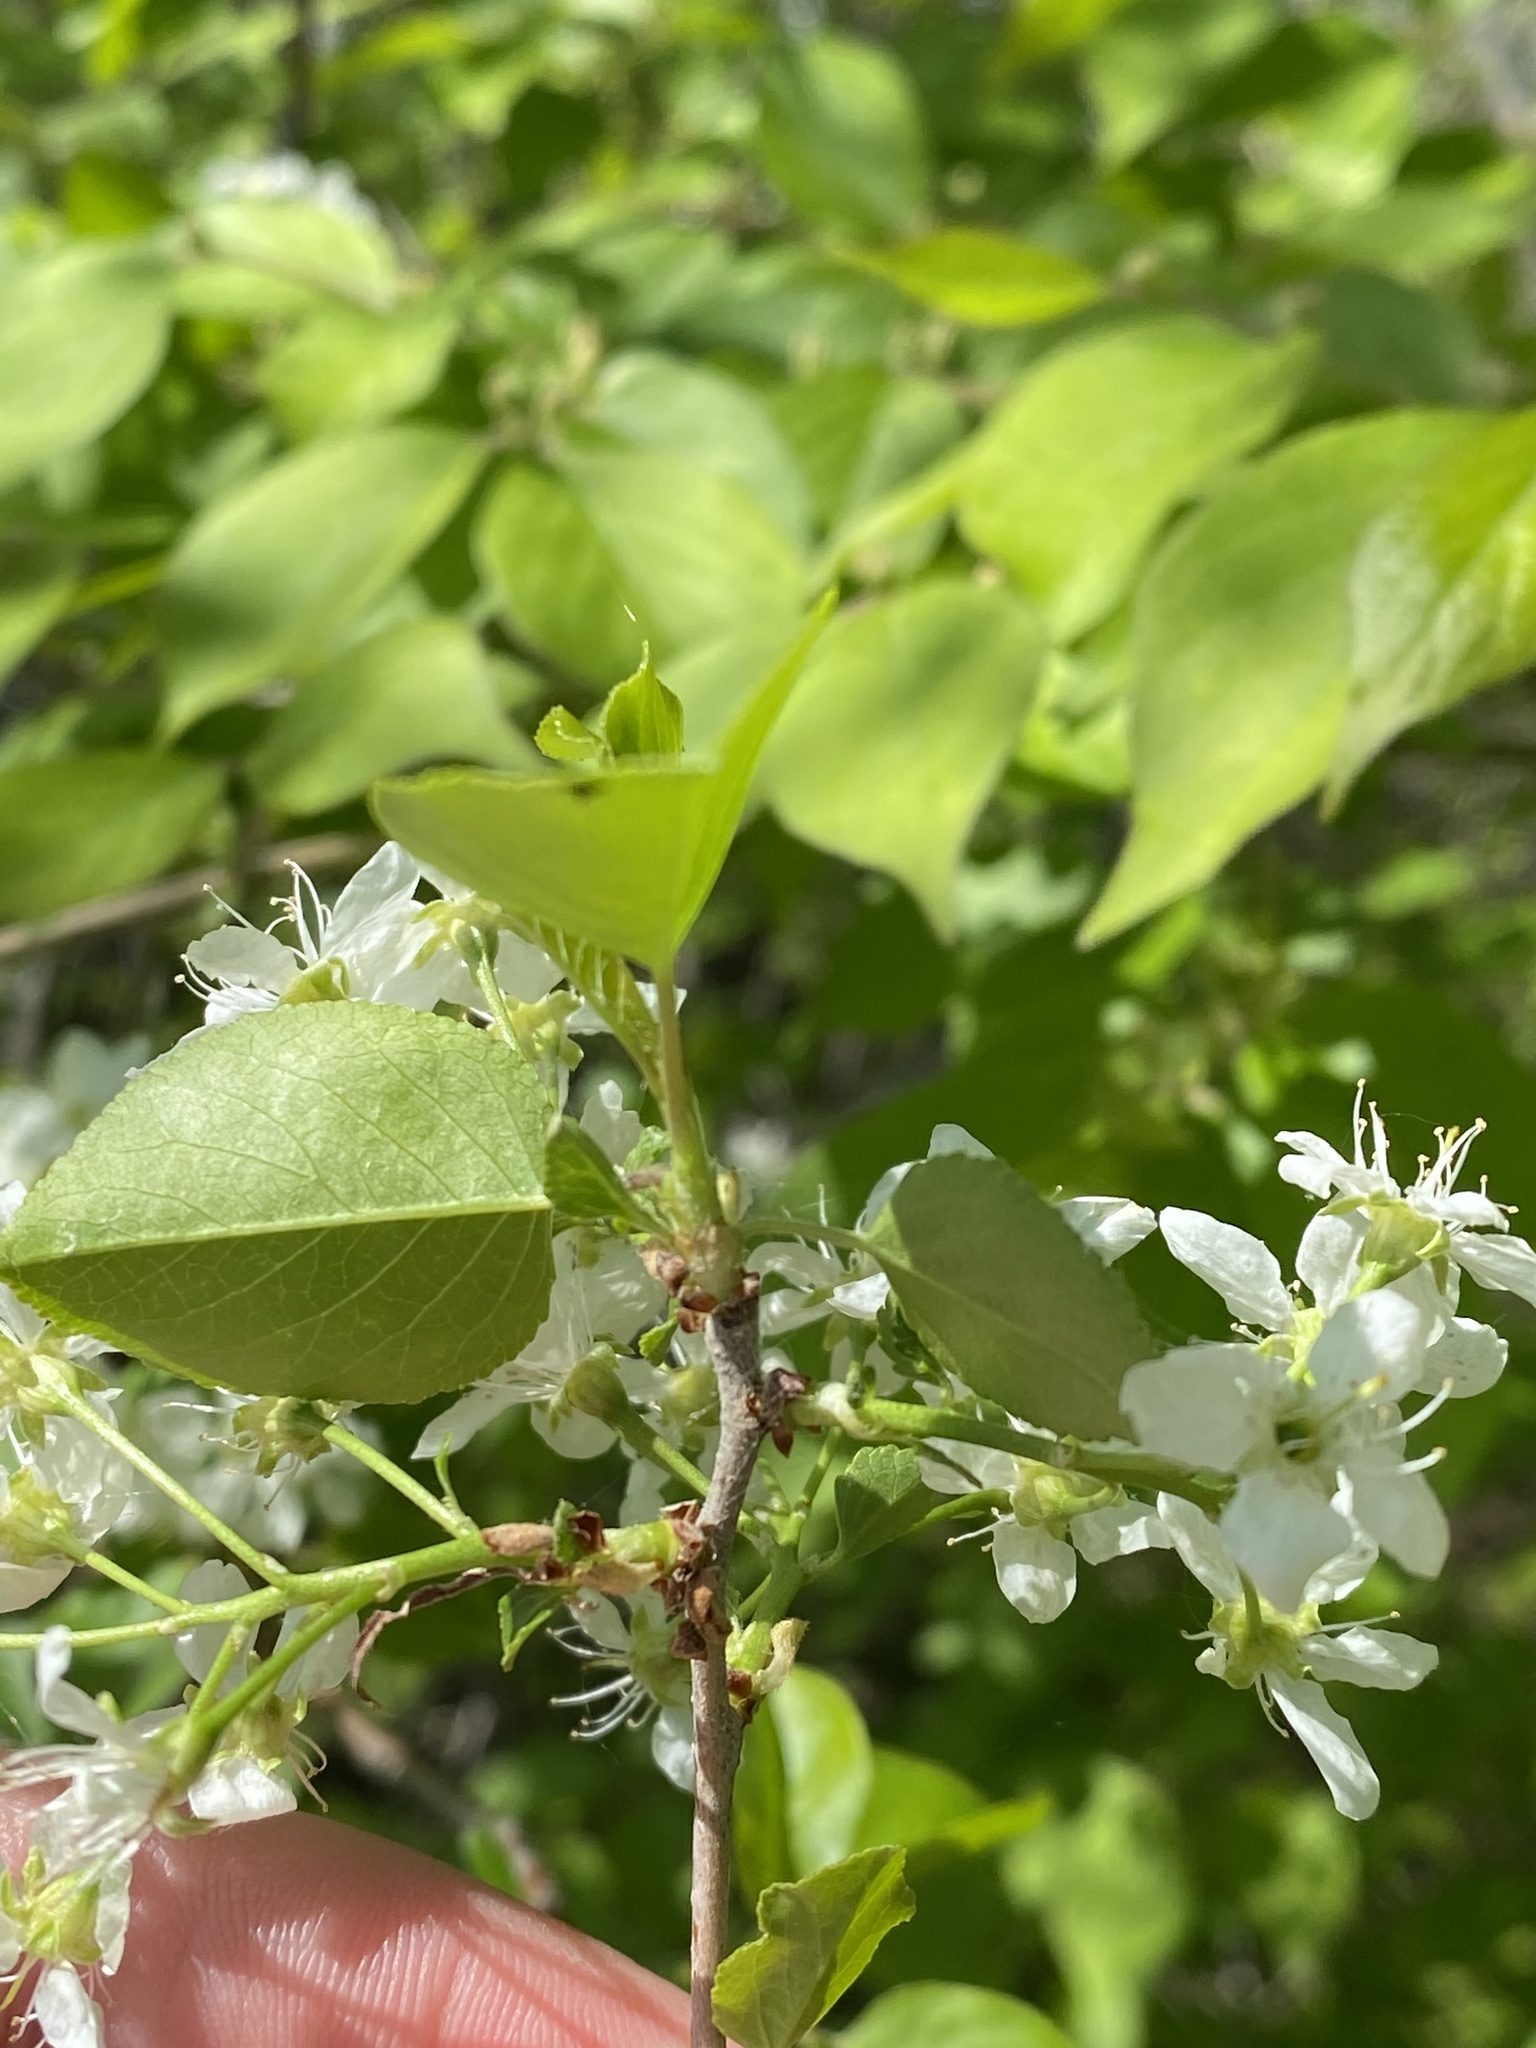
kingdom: Plantae
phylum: Tracheophyta
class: Magnoliopsida
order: Rosales
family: Rosaceae
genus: Prunus
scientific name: Prunus pensylvanica
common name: Pin cherry
